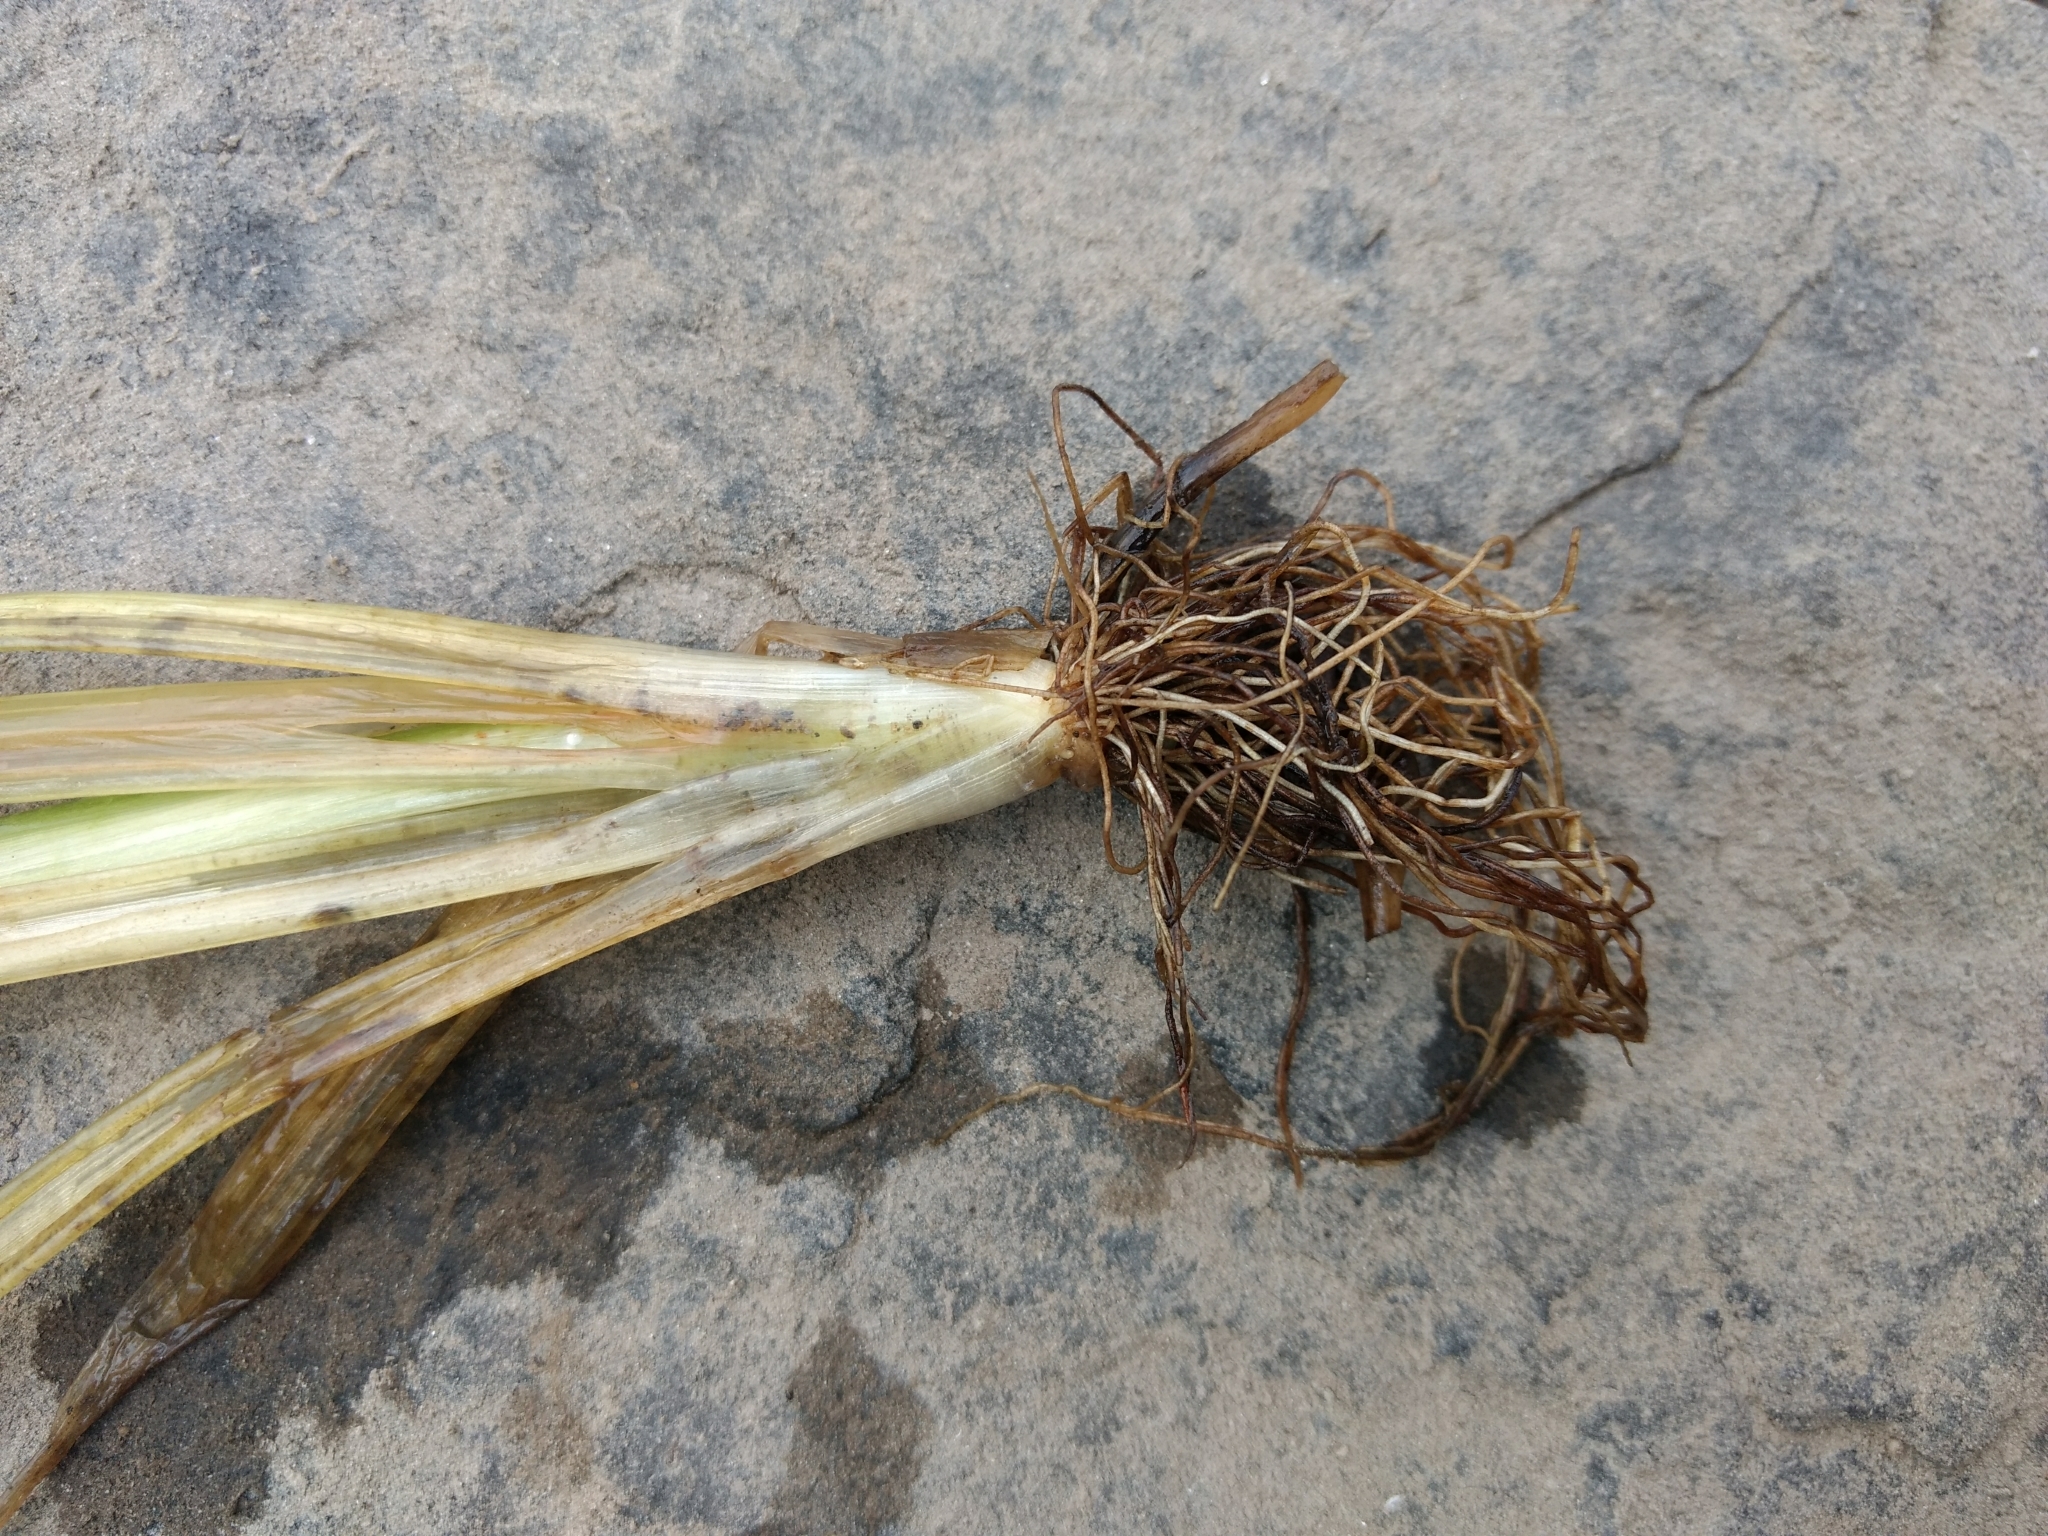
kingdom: Plantae
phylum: Tracheophyta
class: Liliopsida
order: Alismatales
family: Hydrocharitaceae
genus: Vallisneria
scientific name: Vallisneria americana
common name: American eelgrass
